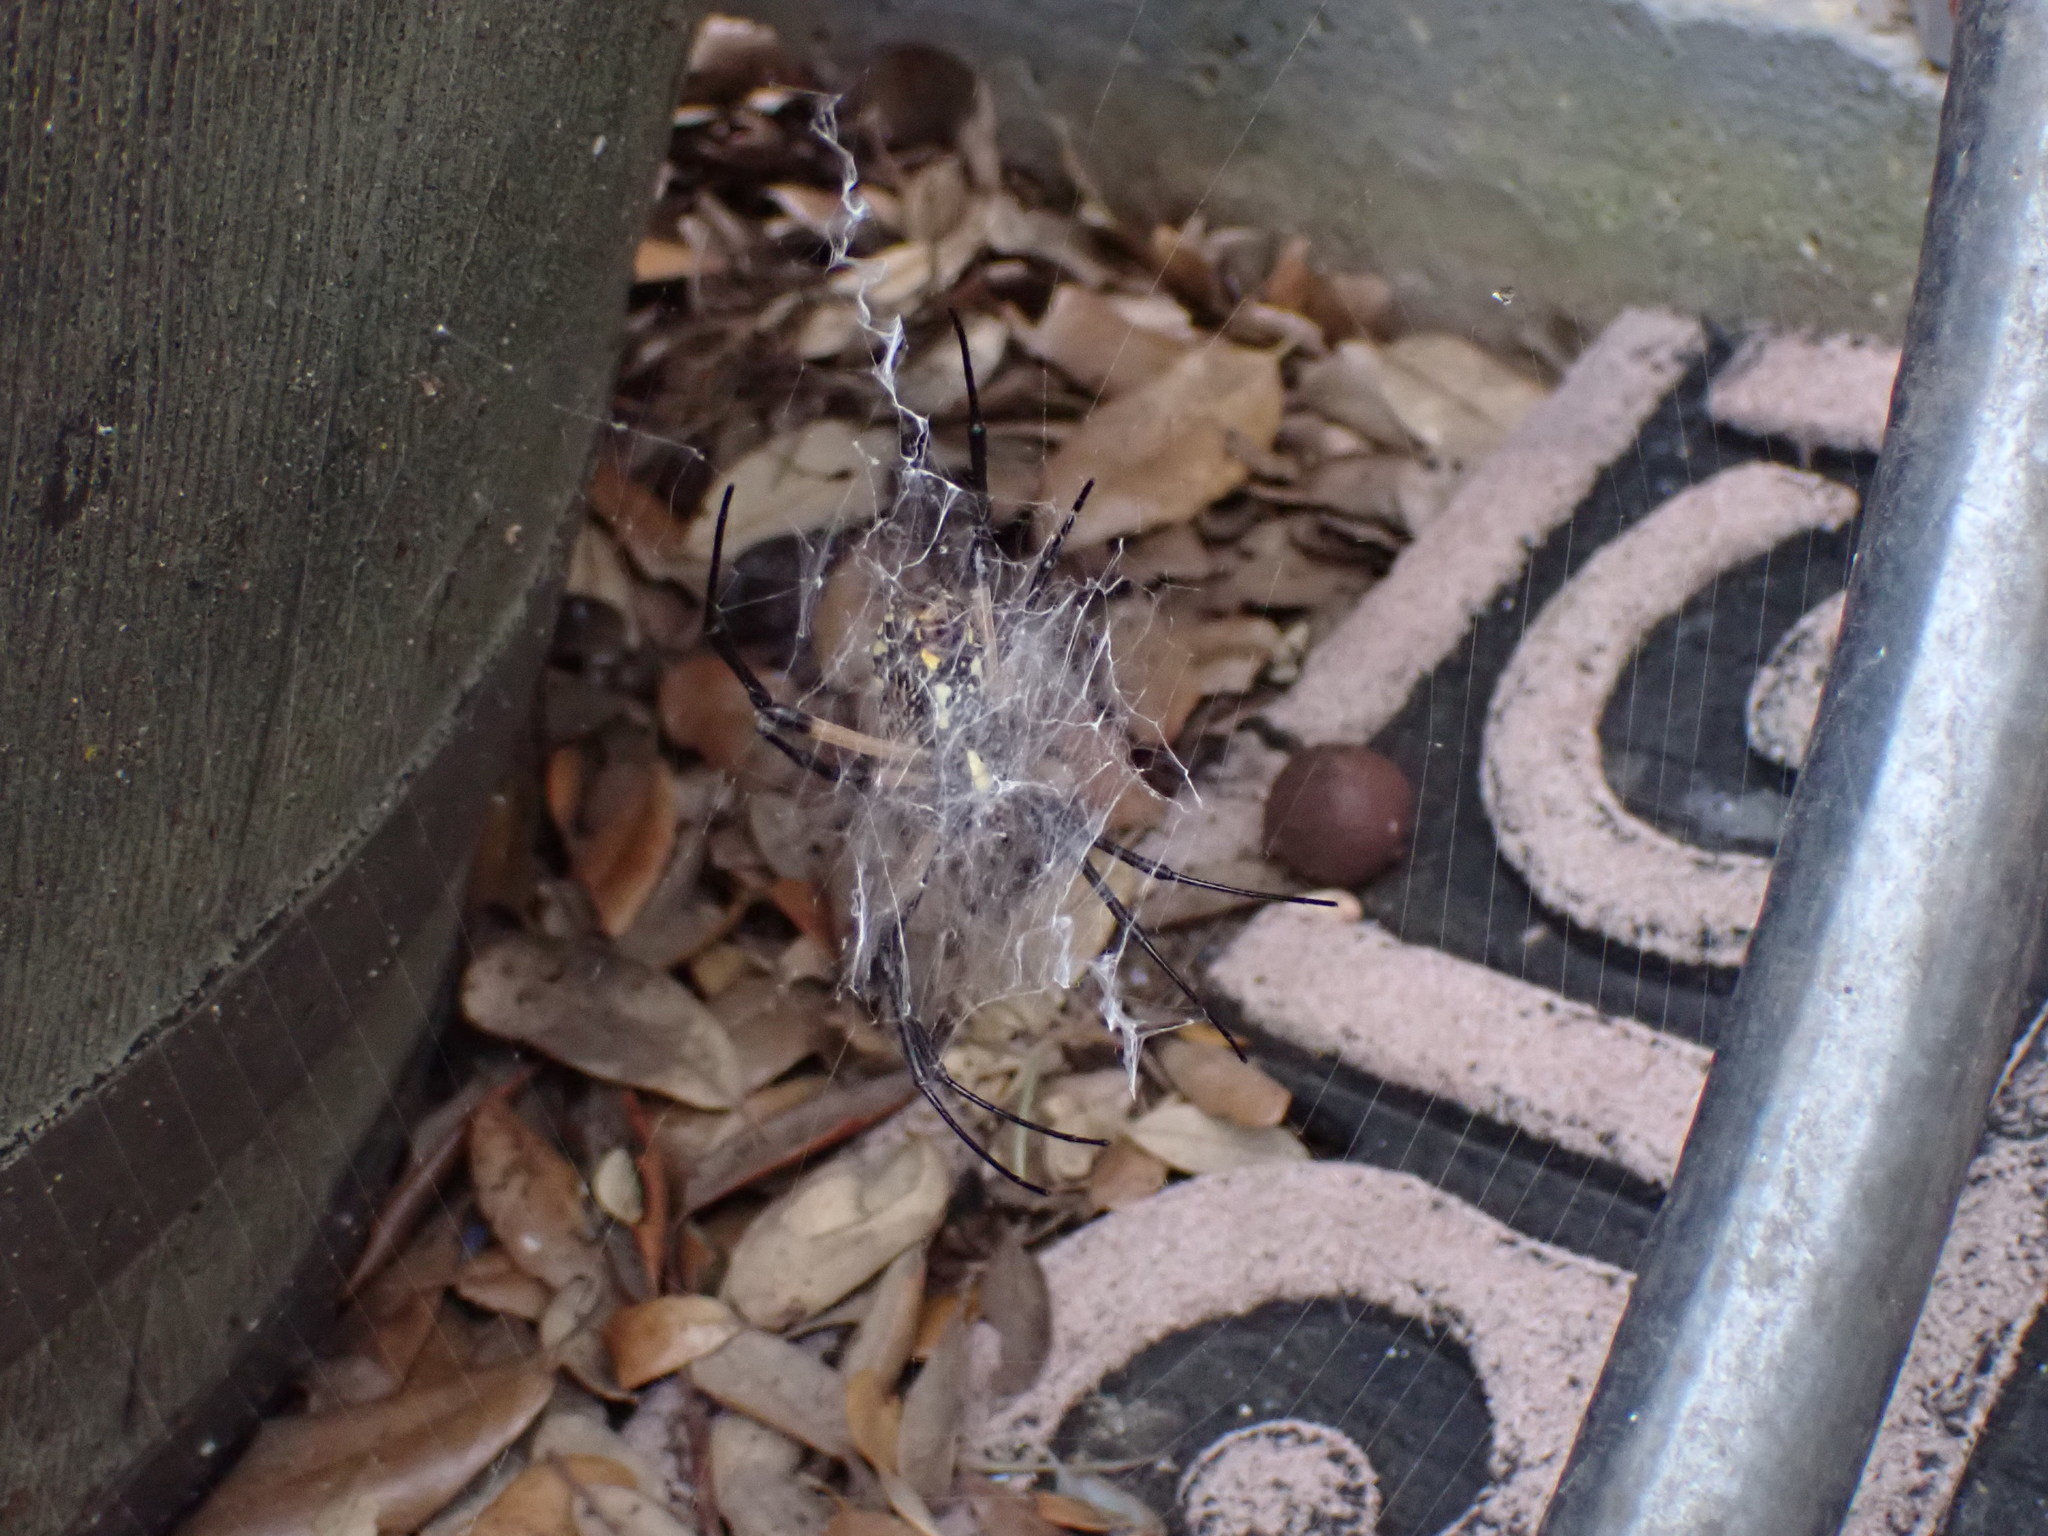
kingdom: Animalia
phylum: Arthropoda
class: Arachnida
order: Araneae
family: Araneidae
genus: Argiope
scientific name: Argiope aurantia
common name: Orb weavers
